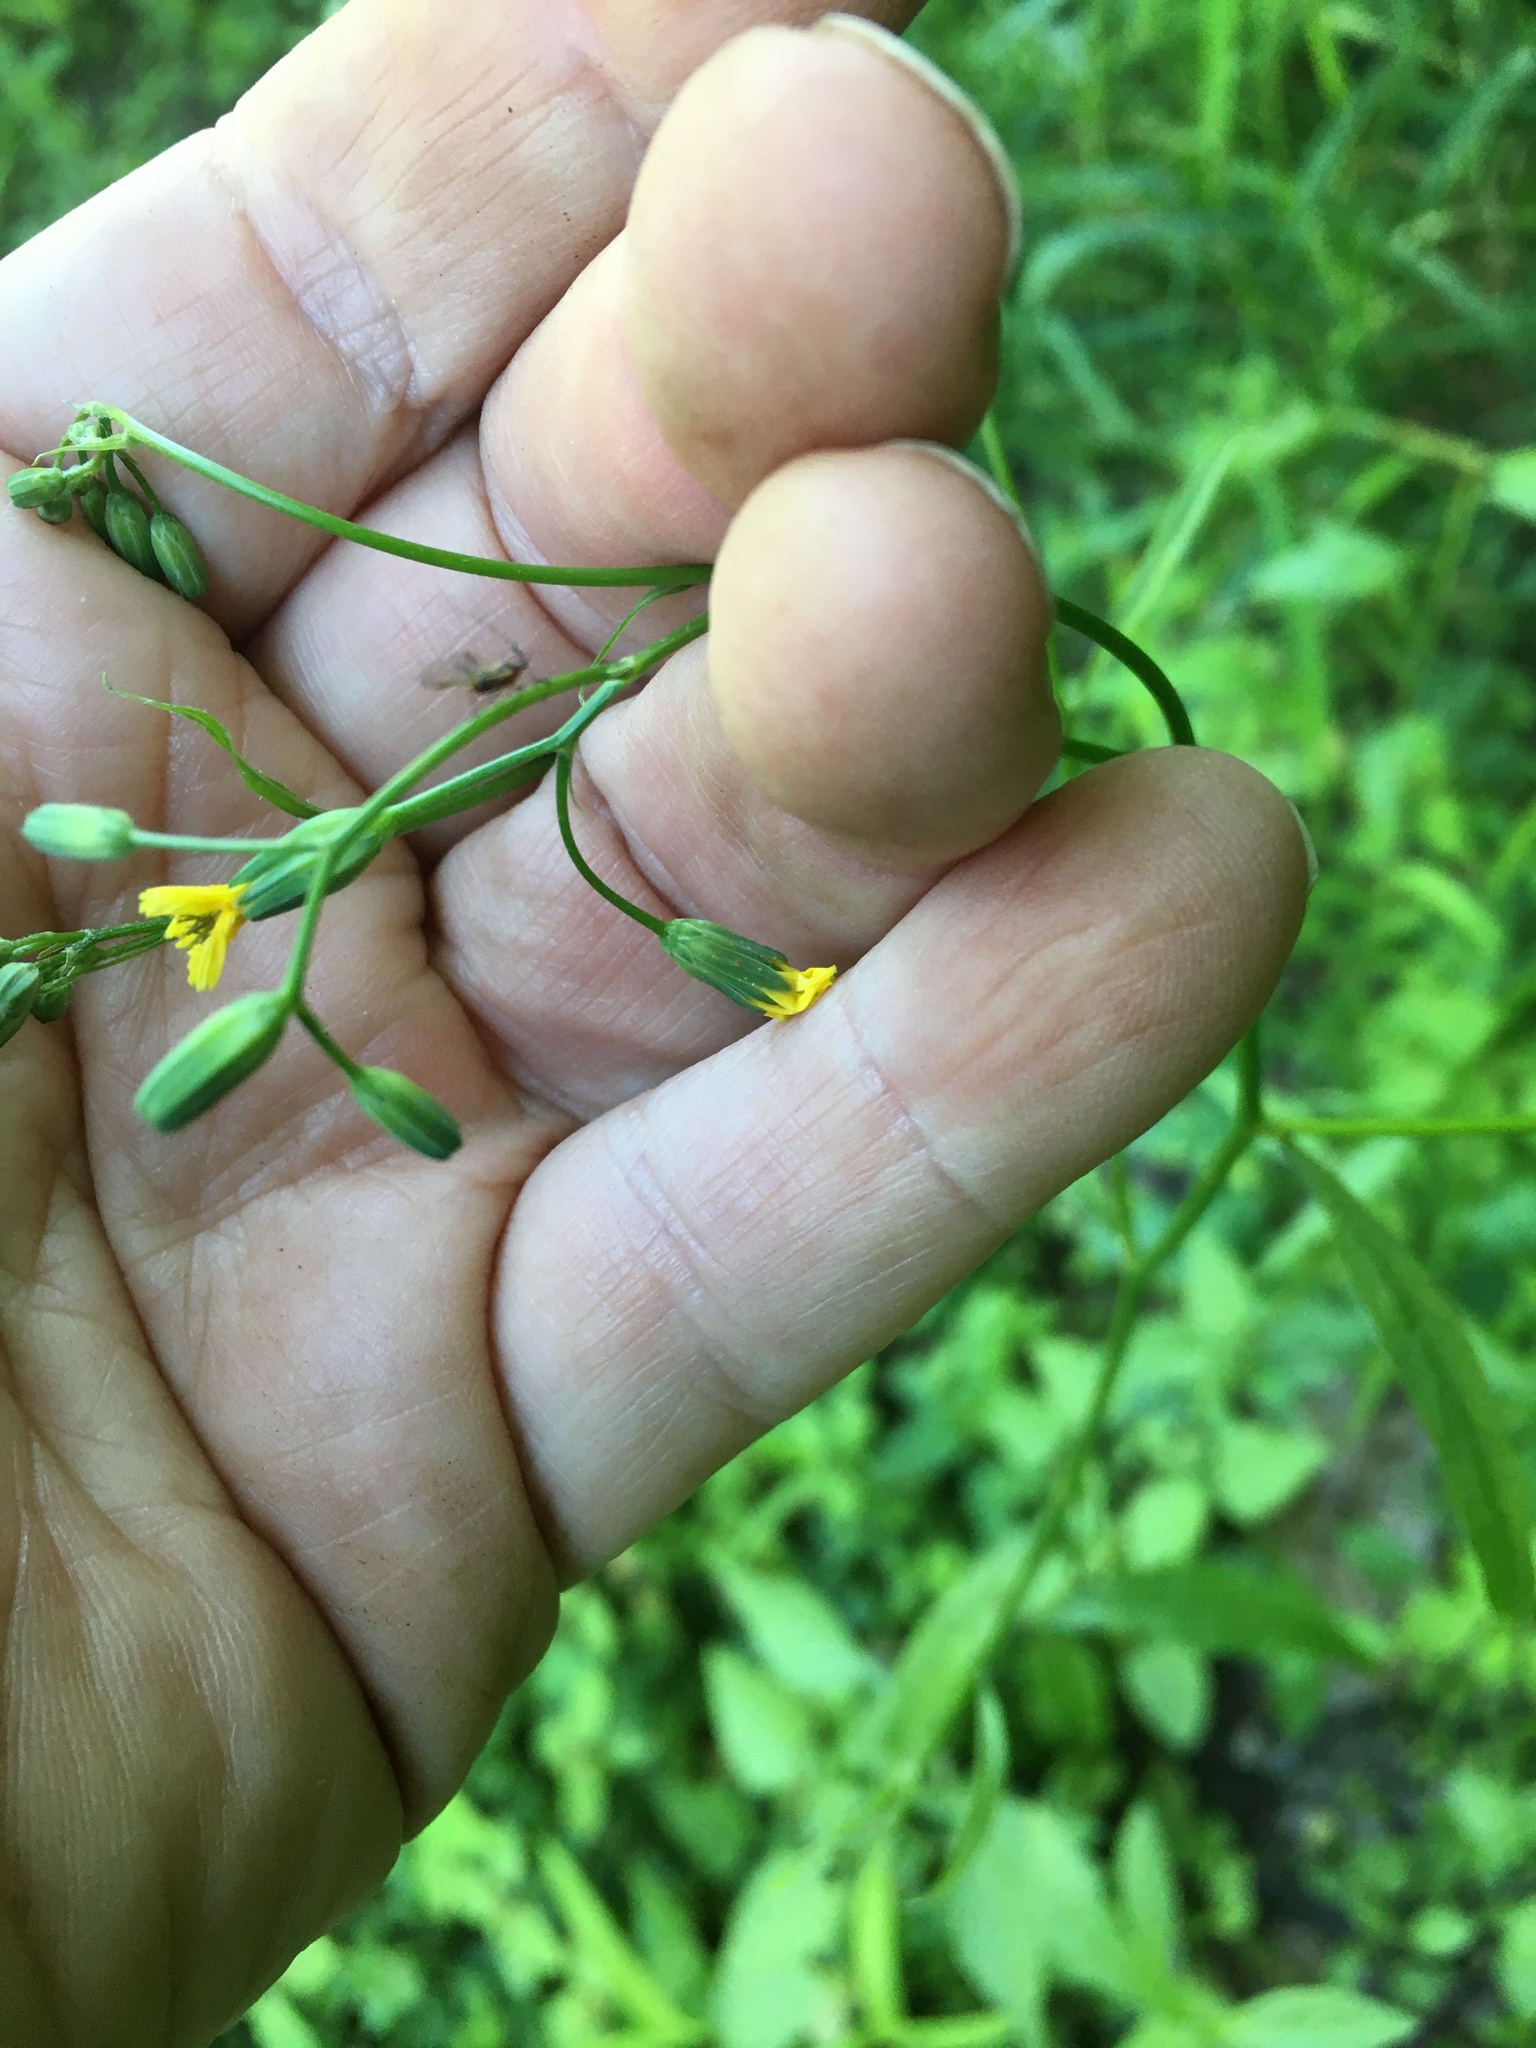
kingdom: Plantae
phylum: Tracheophyta
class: Magnoliopsida
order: Asterales
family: Asteraceae
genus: Lapsana
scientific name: Lapsana communis
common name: Nipplewort
